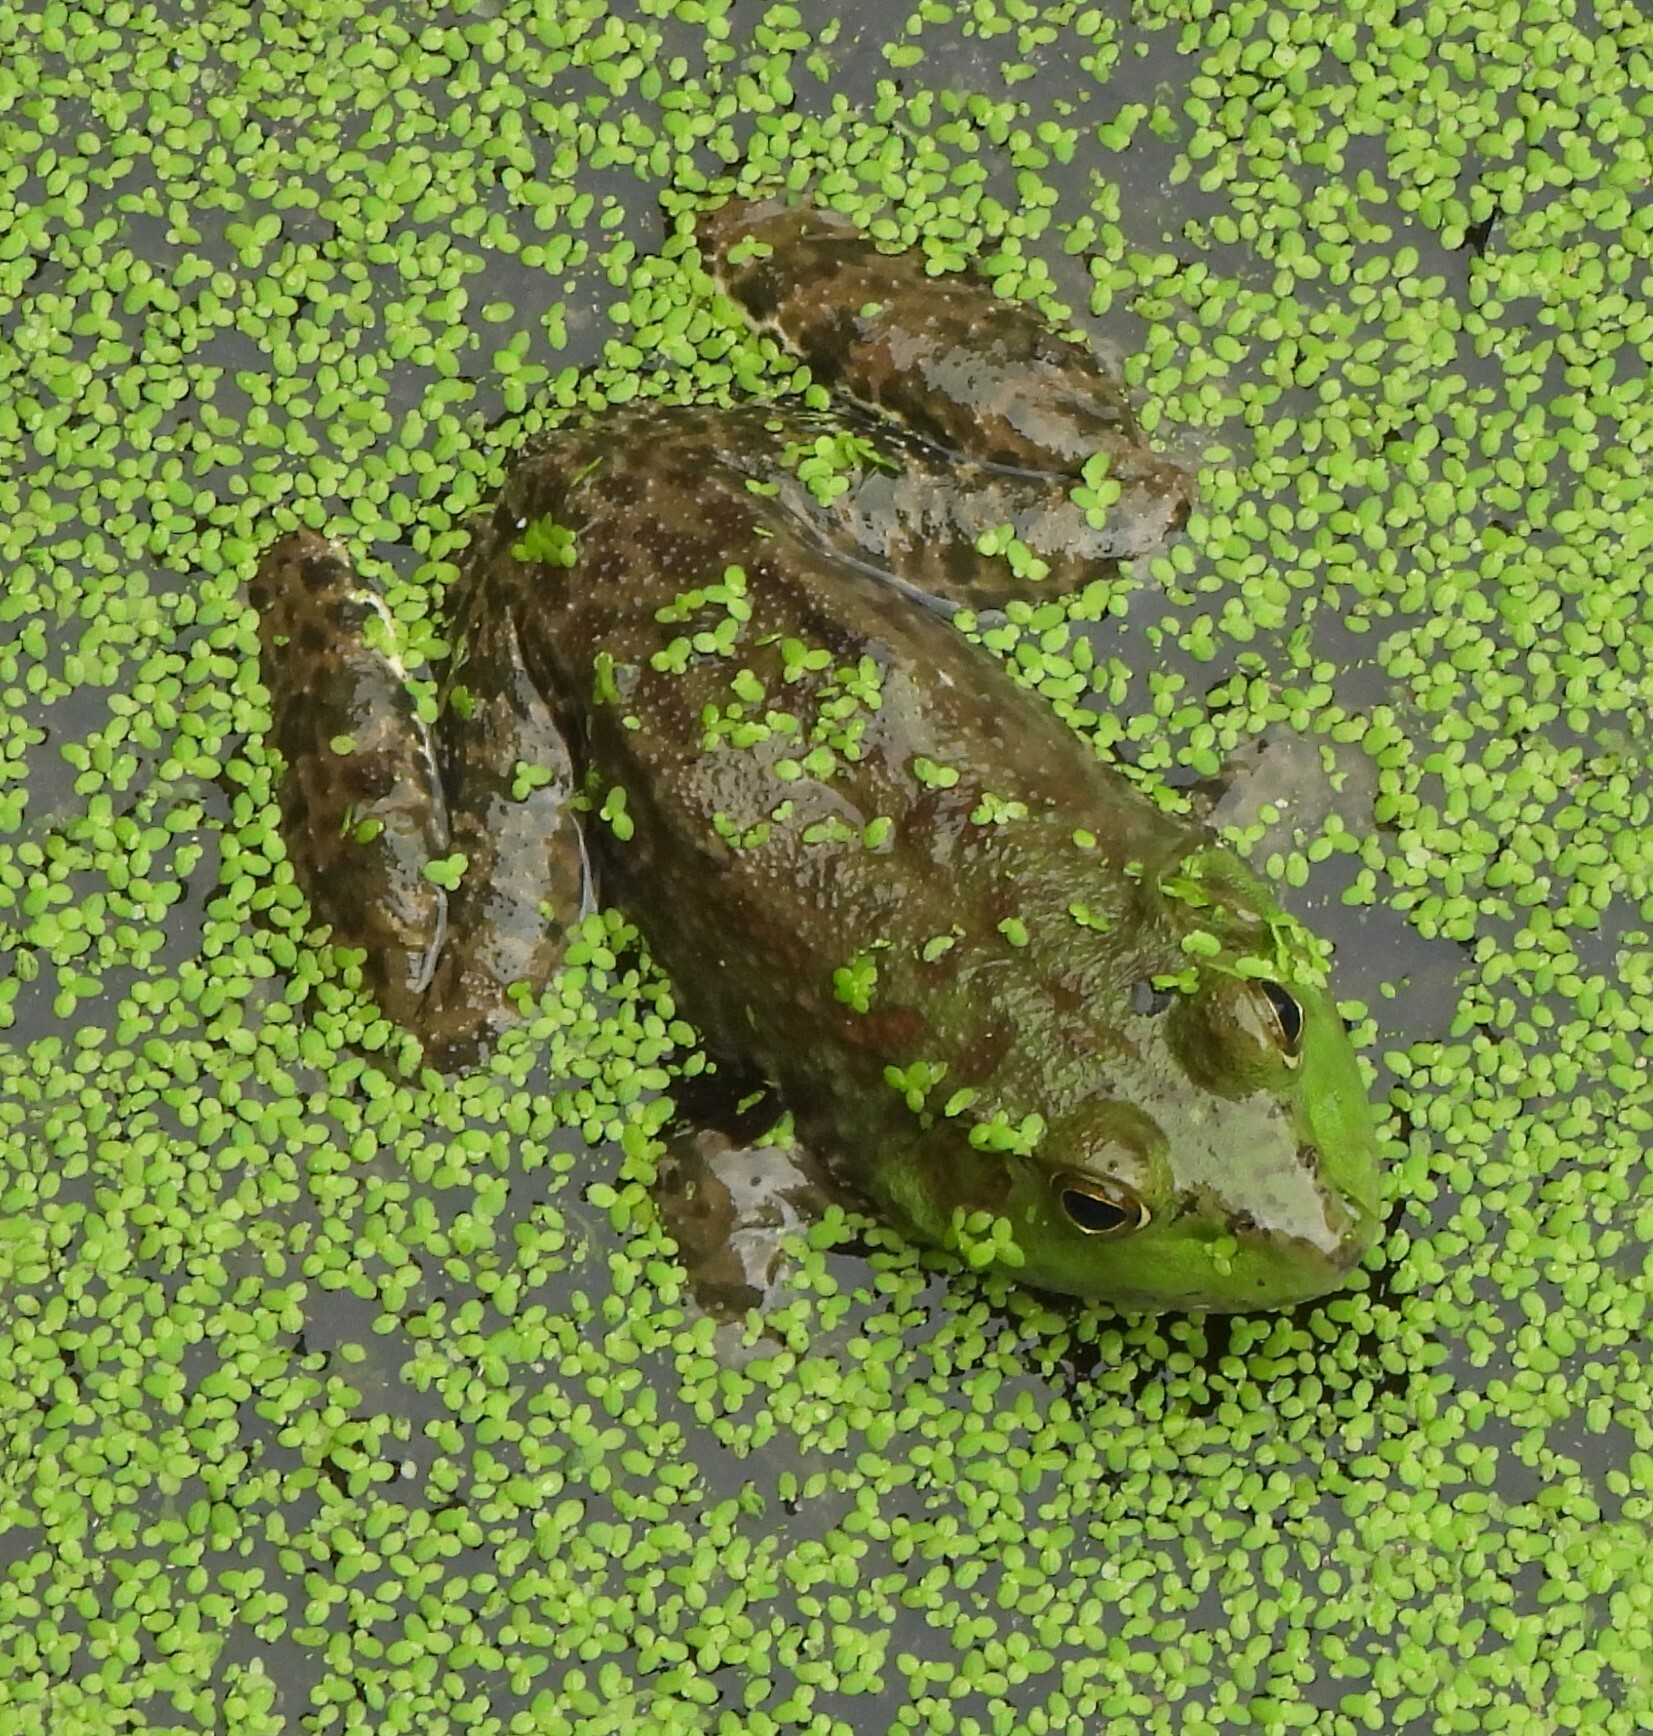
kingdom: Animalia
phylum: Chordata
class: Amphibia
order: Anura
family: Ranidae
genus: Lithobates
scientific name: Lithobates catesbeianus
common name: American bullfrog
